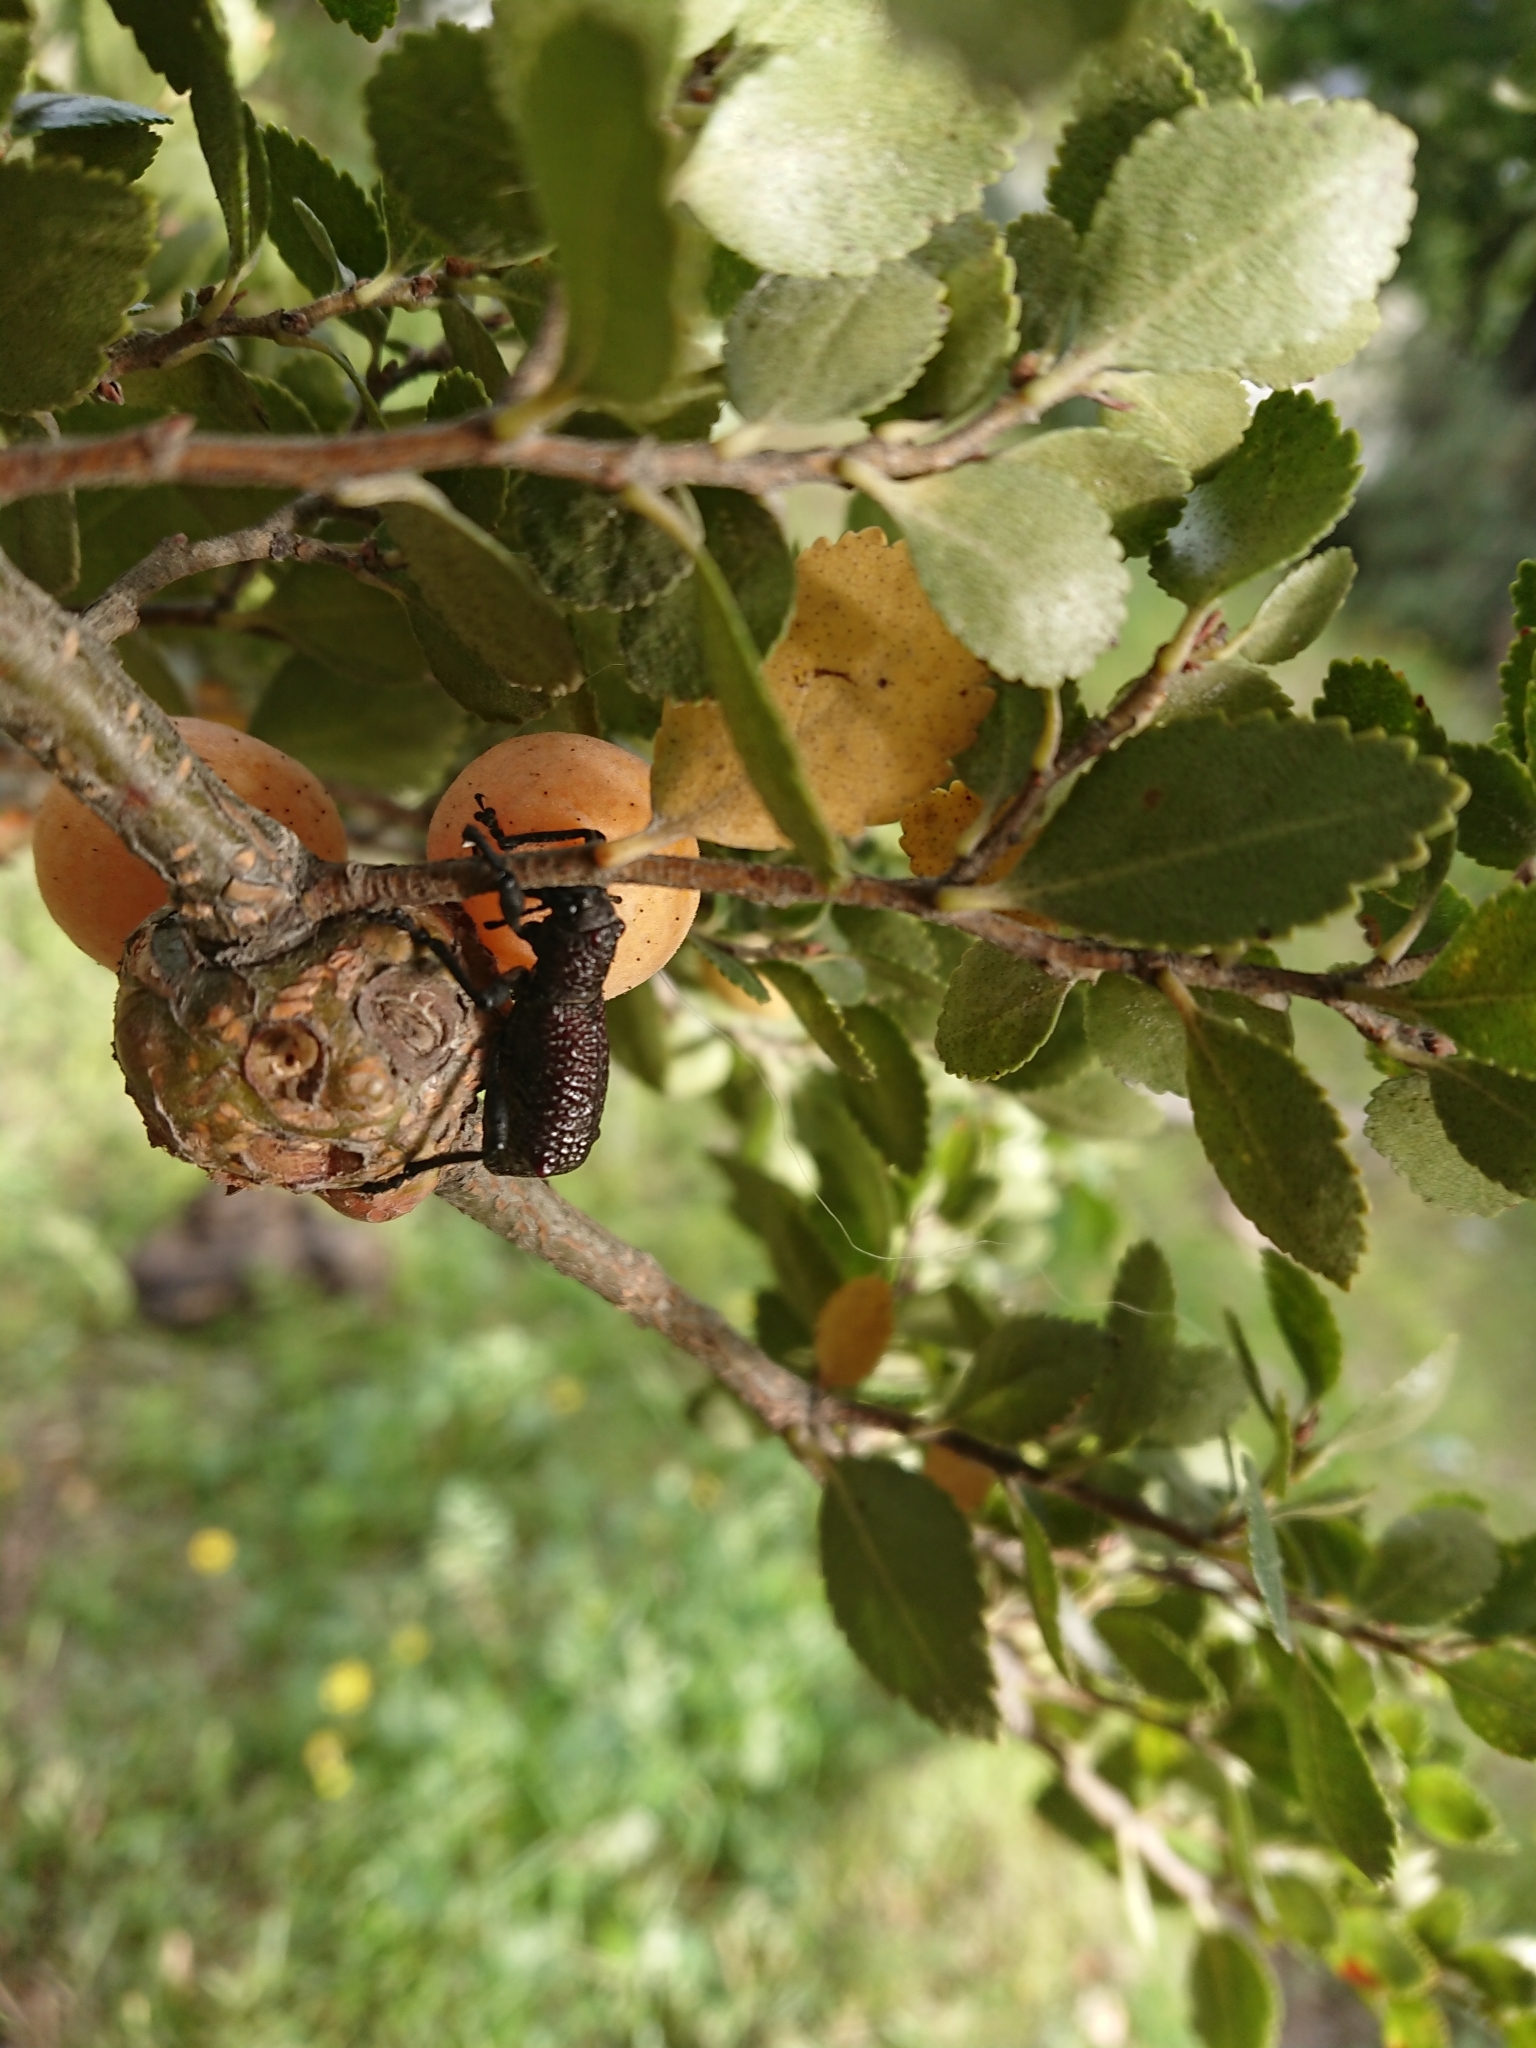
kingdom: Animalia
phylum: Arthropoda
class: Insecta
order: Coleoptera
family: Curculionidae
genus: Aegorhinus
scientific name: Aegorhinus vitulus
